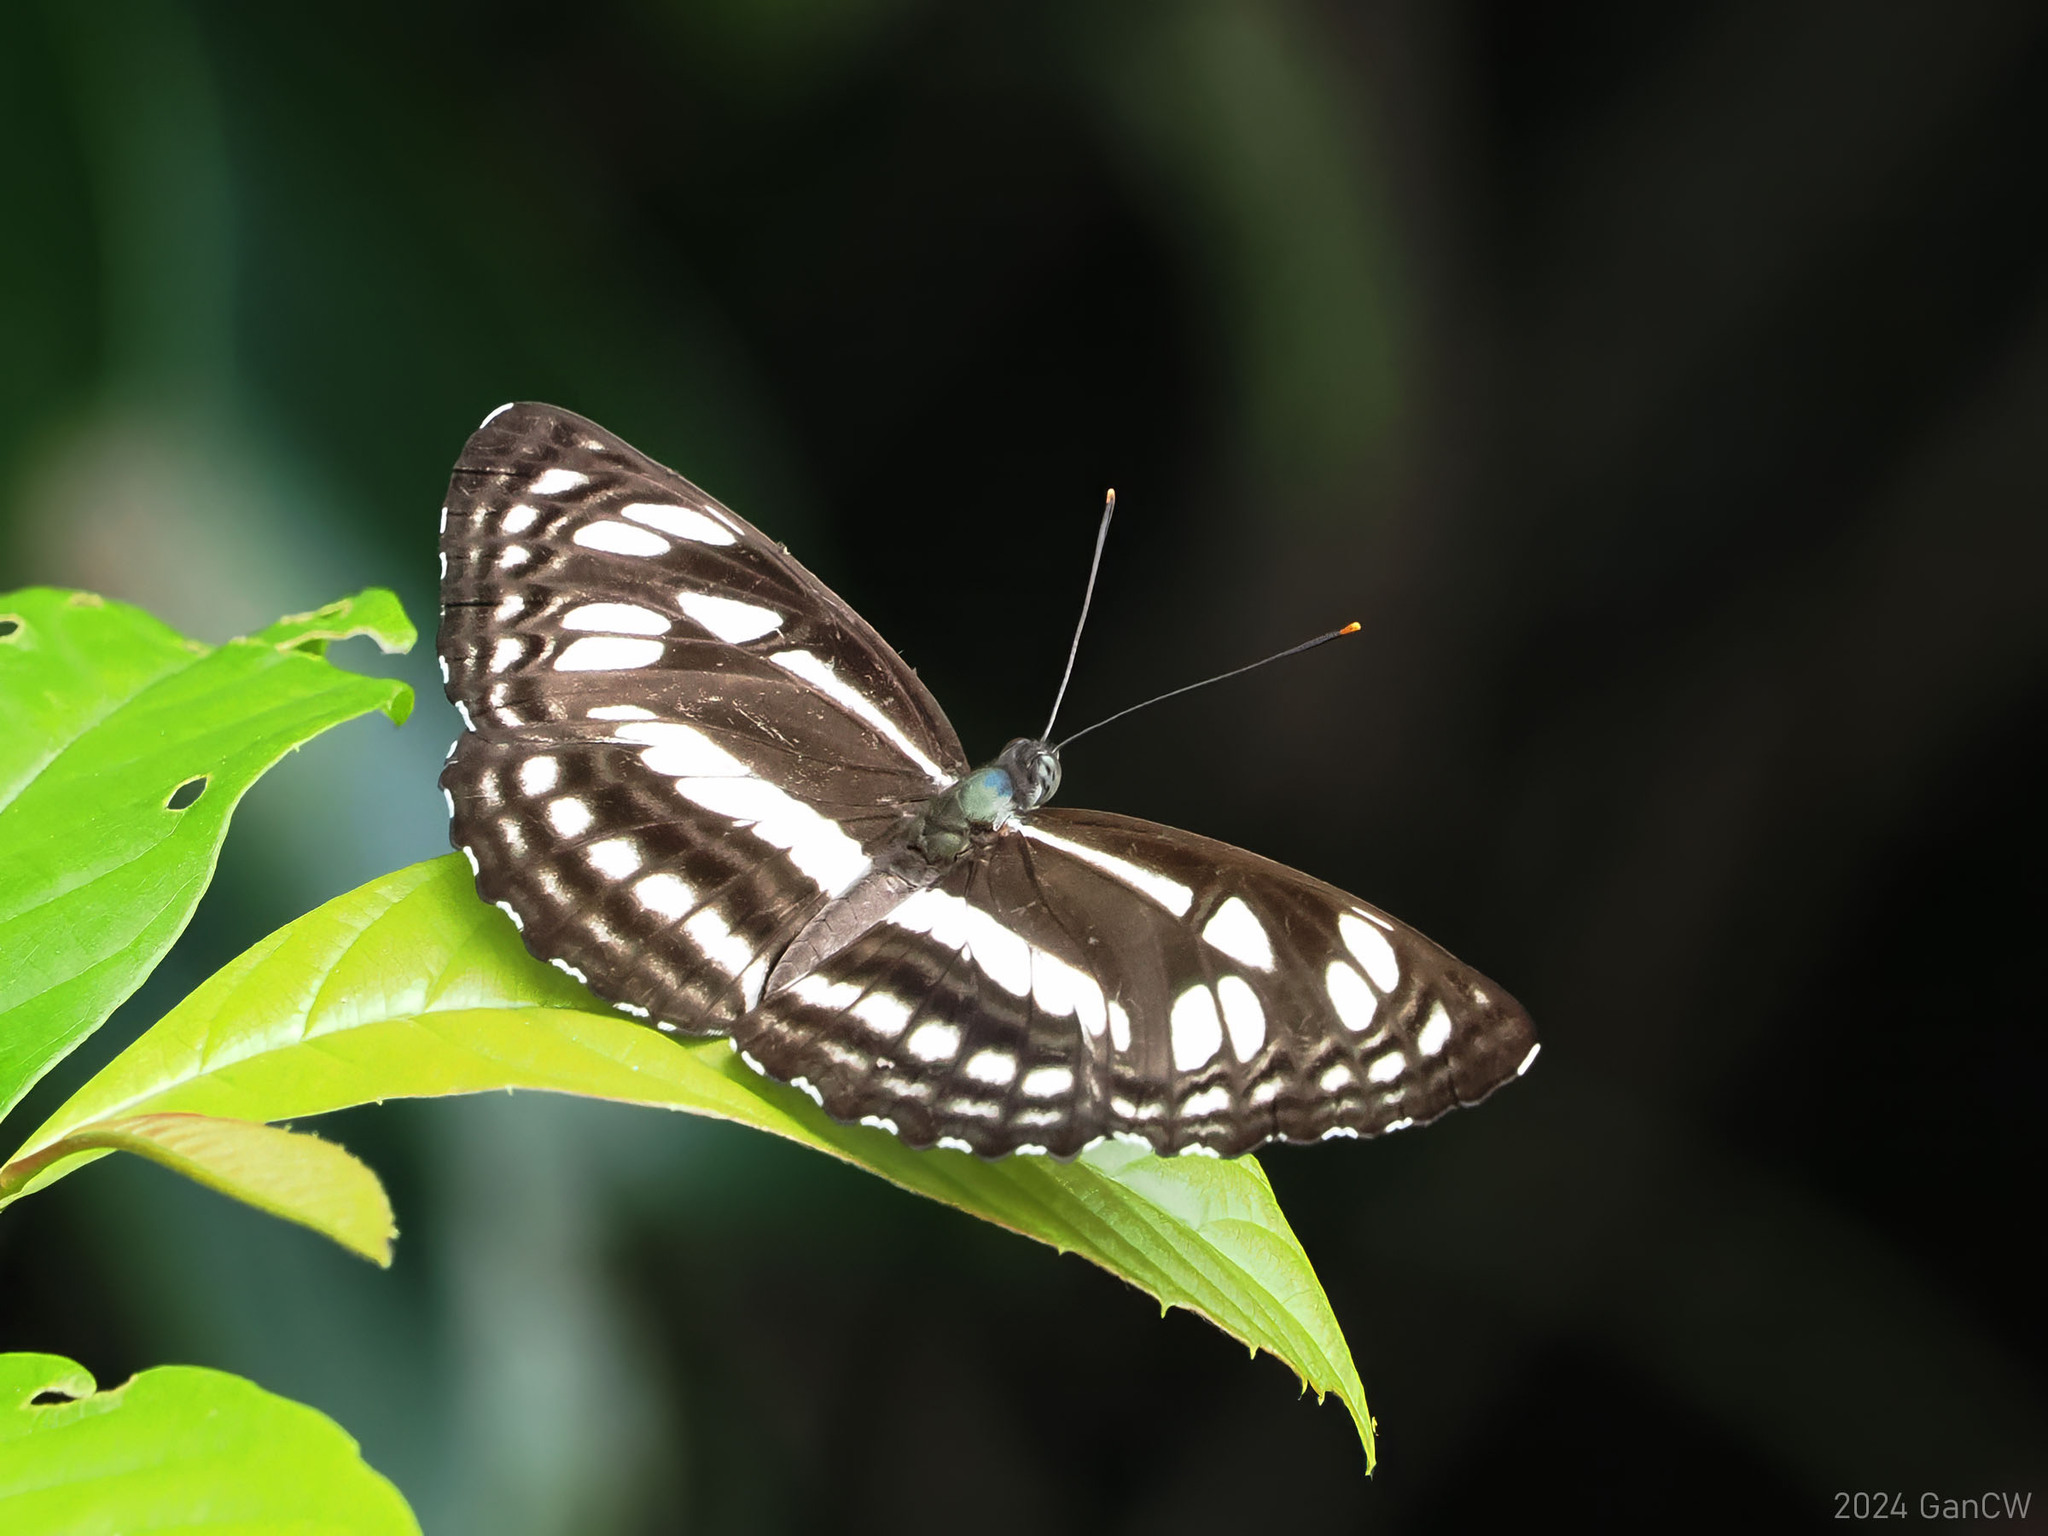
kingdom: Animalia
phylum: Arthropoda
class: Insecta
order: Lepidoptera
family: Nymphalidae
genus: Phaedyma
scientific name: Phaedyma columella
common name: Short banded sailer
